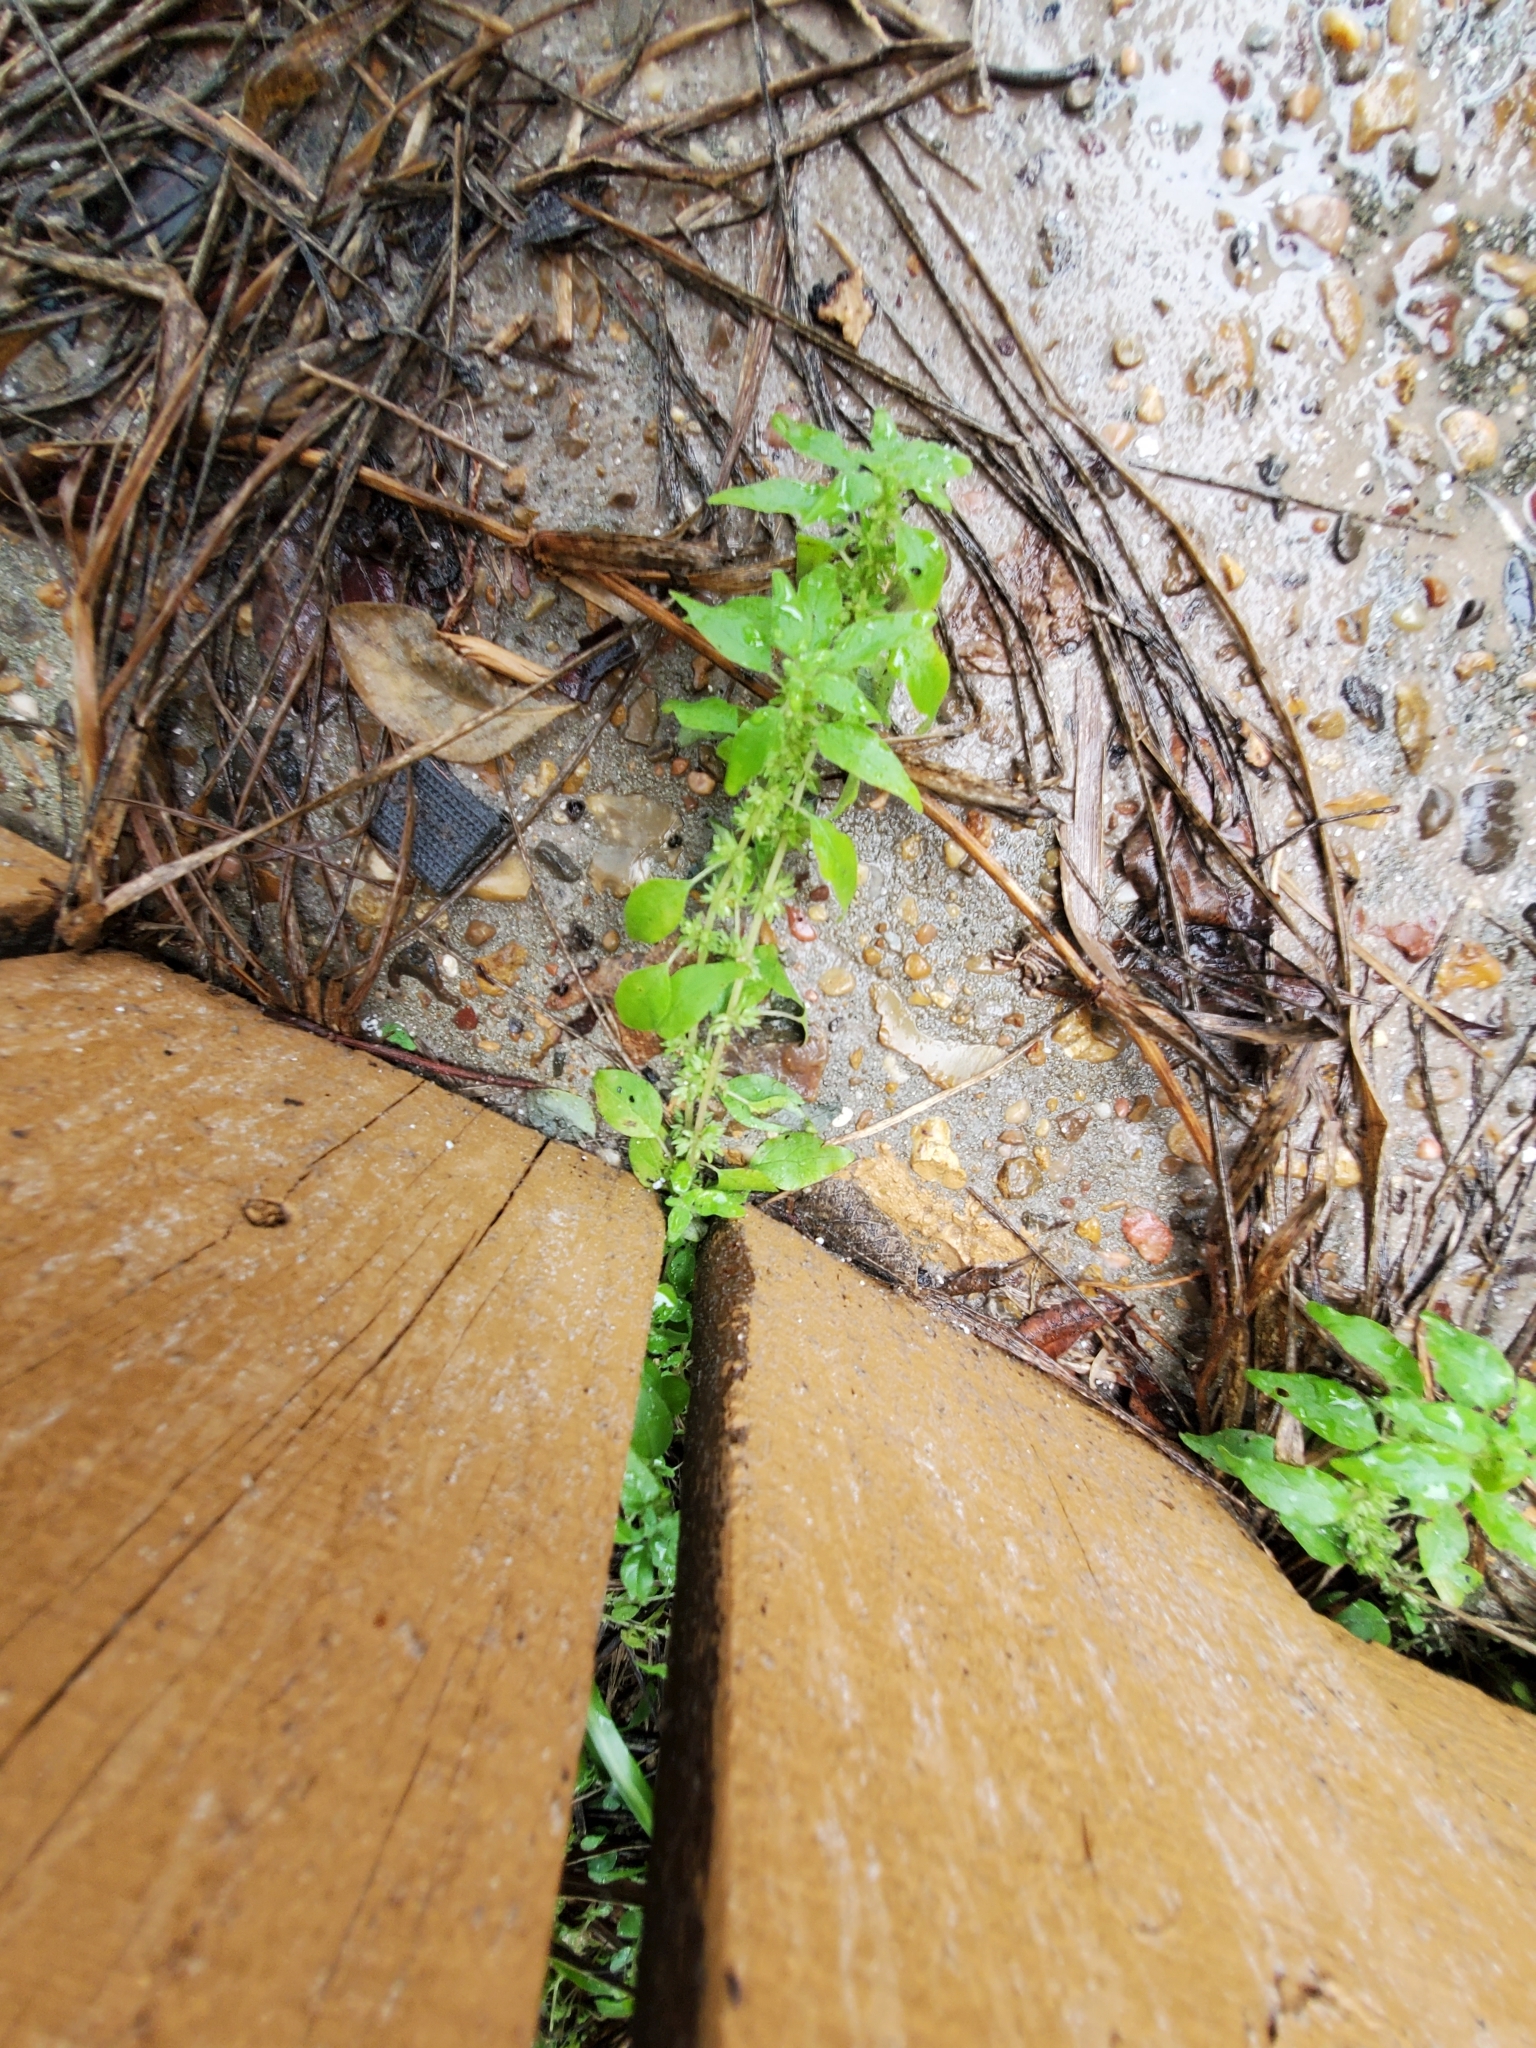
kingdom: Plantae
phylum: Tracheophyta
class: Magnoliopsida
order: Rosales
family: Urticaceae
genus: Parietaria
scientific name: Parietaria pensylvanica
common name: Pennsylvania pellitory
